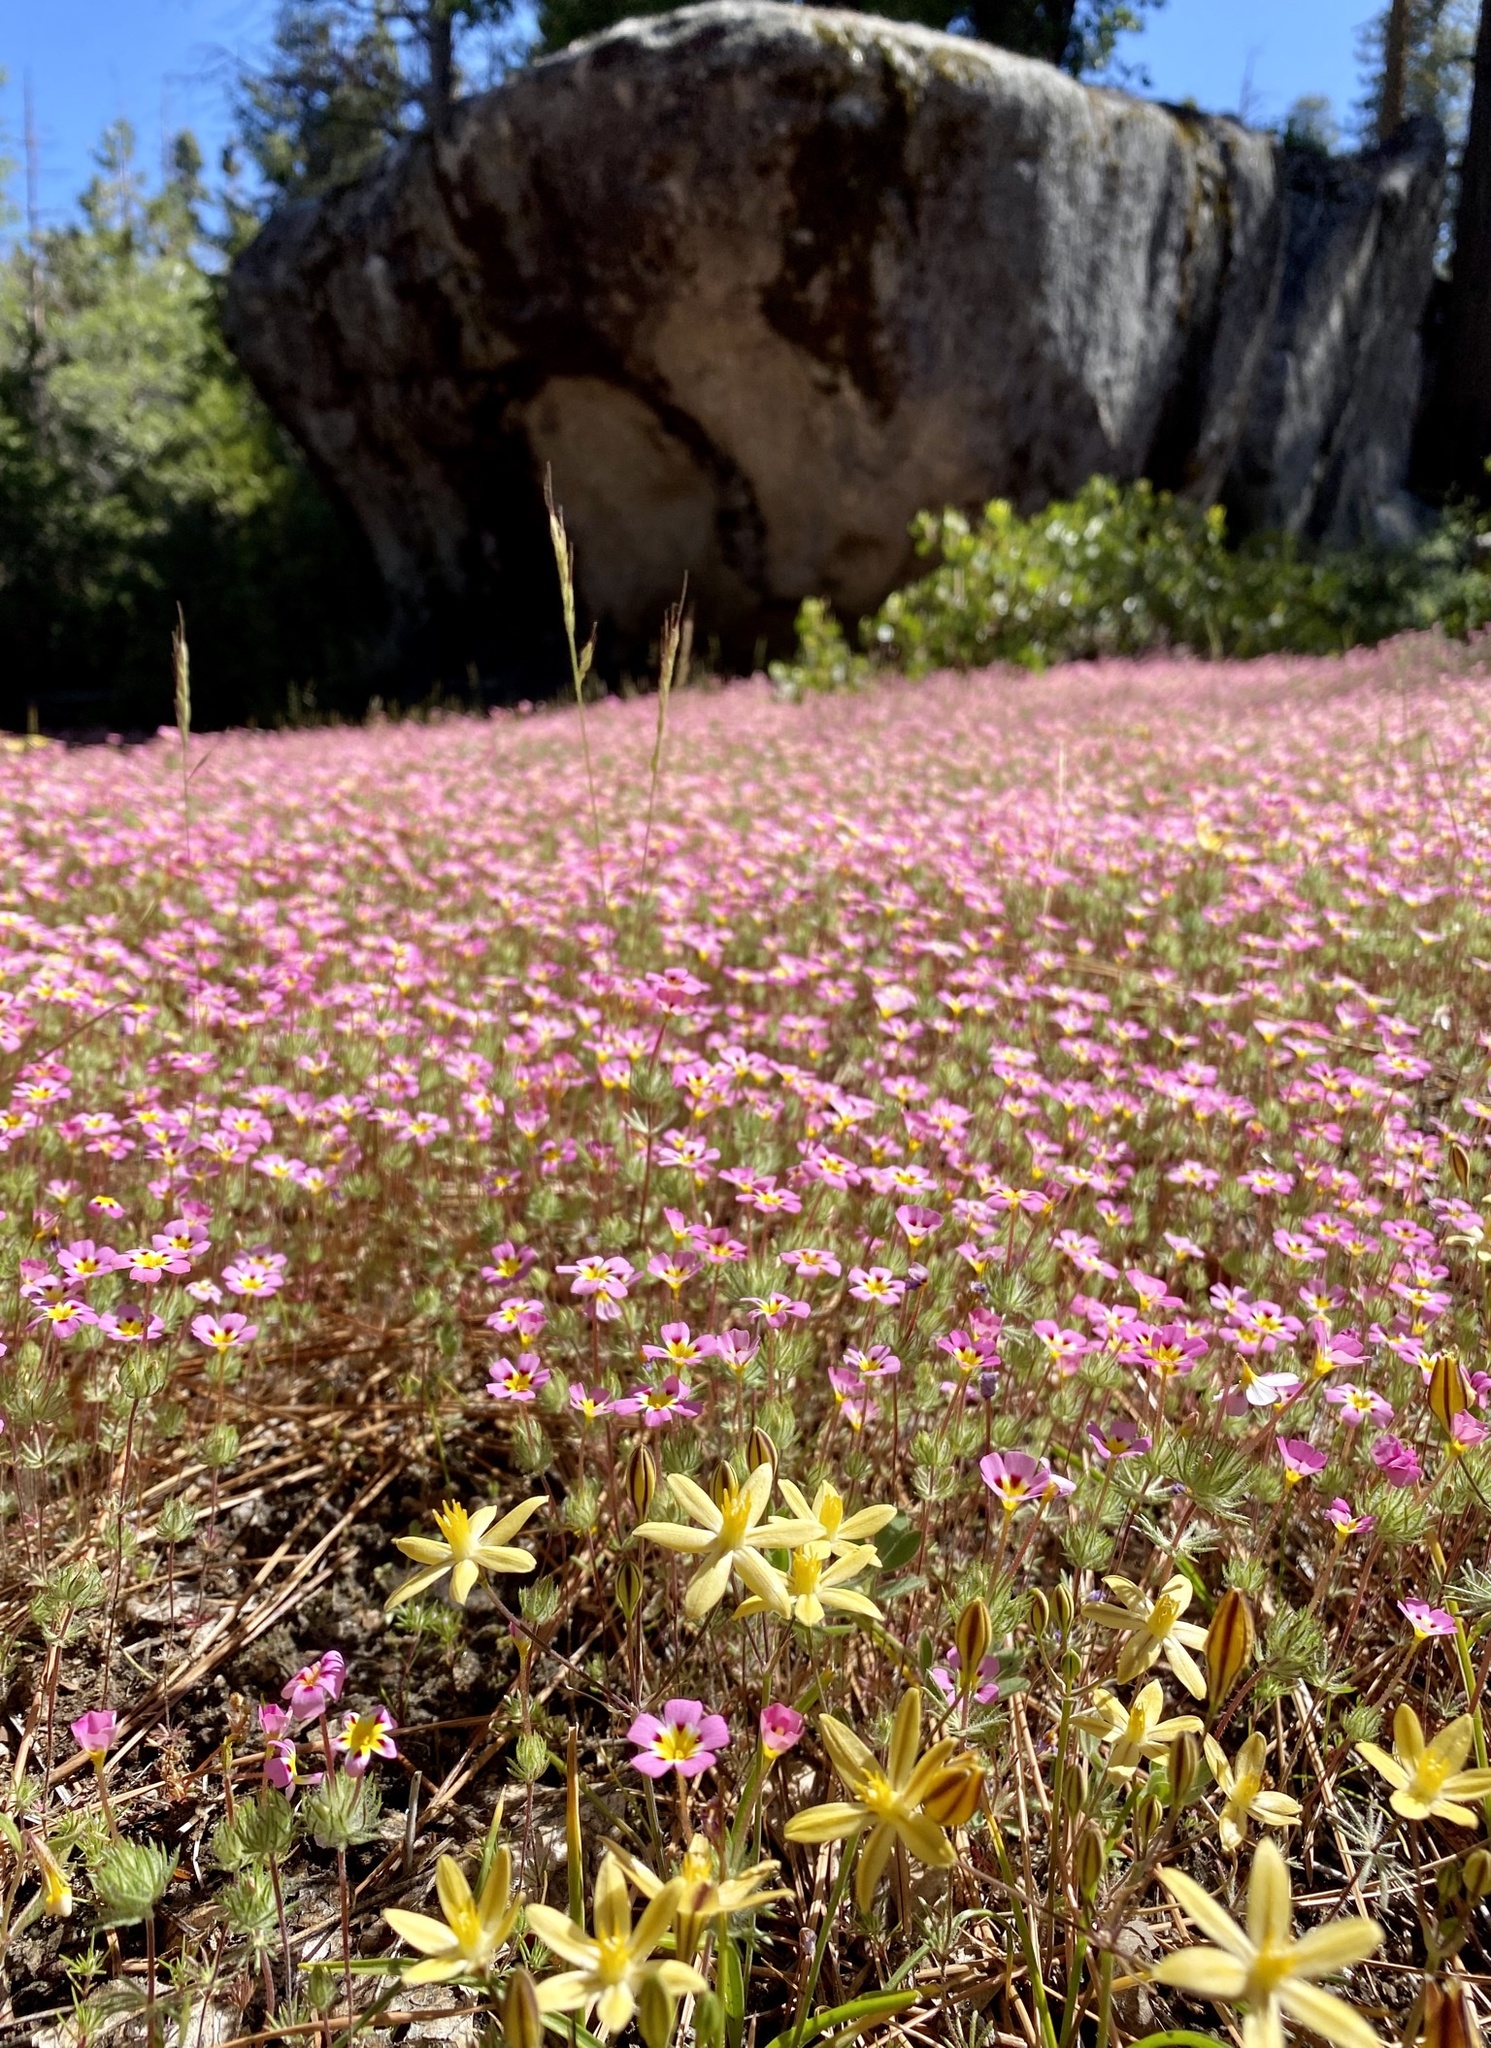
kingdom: Plantae
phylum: Tracheophyta
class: Magnoliopsida
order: Ericales
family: Polemoniaceae
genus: Leptosiphon
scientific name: Leptosiphon ciliatus
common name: Whiskerbrush
